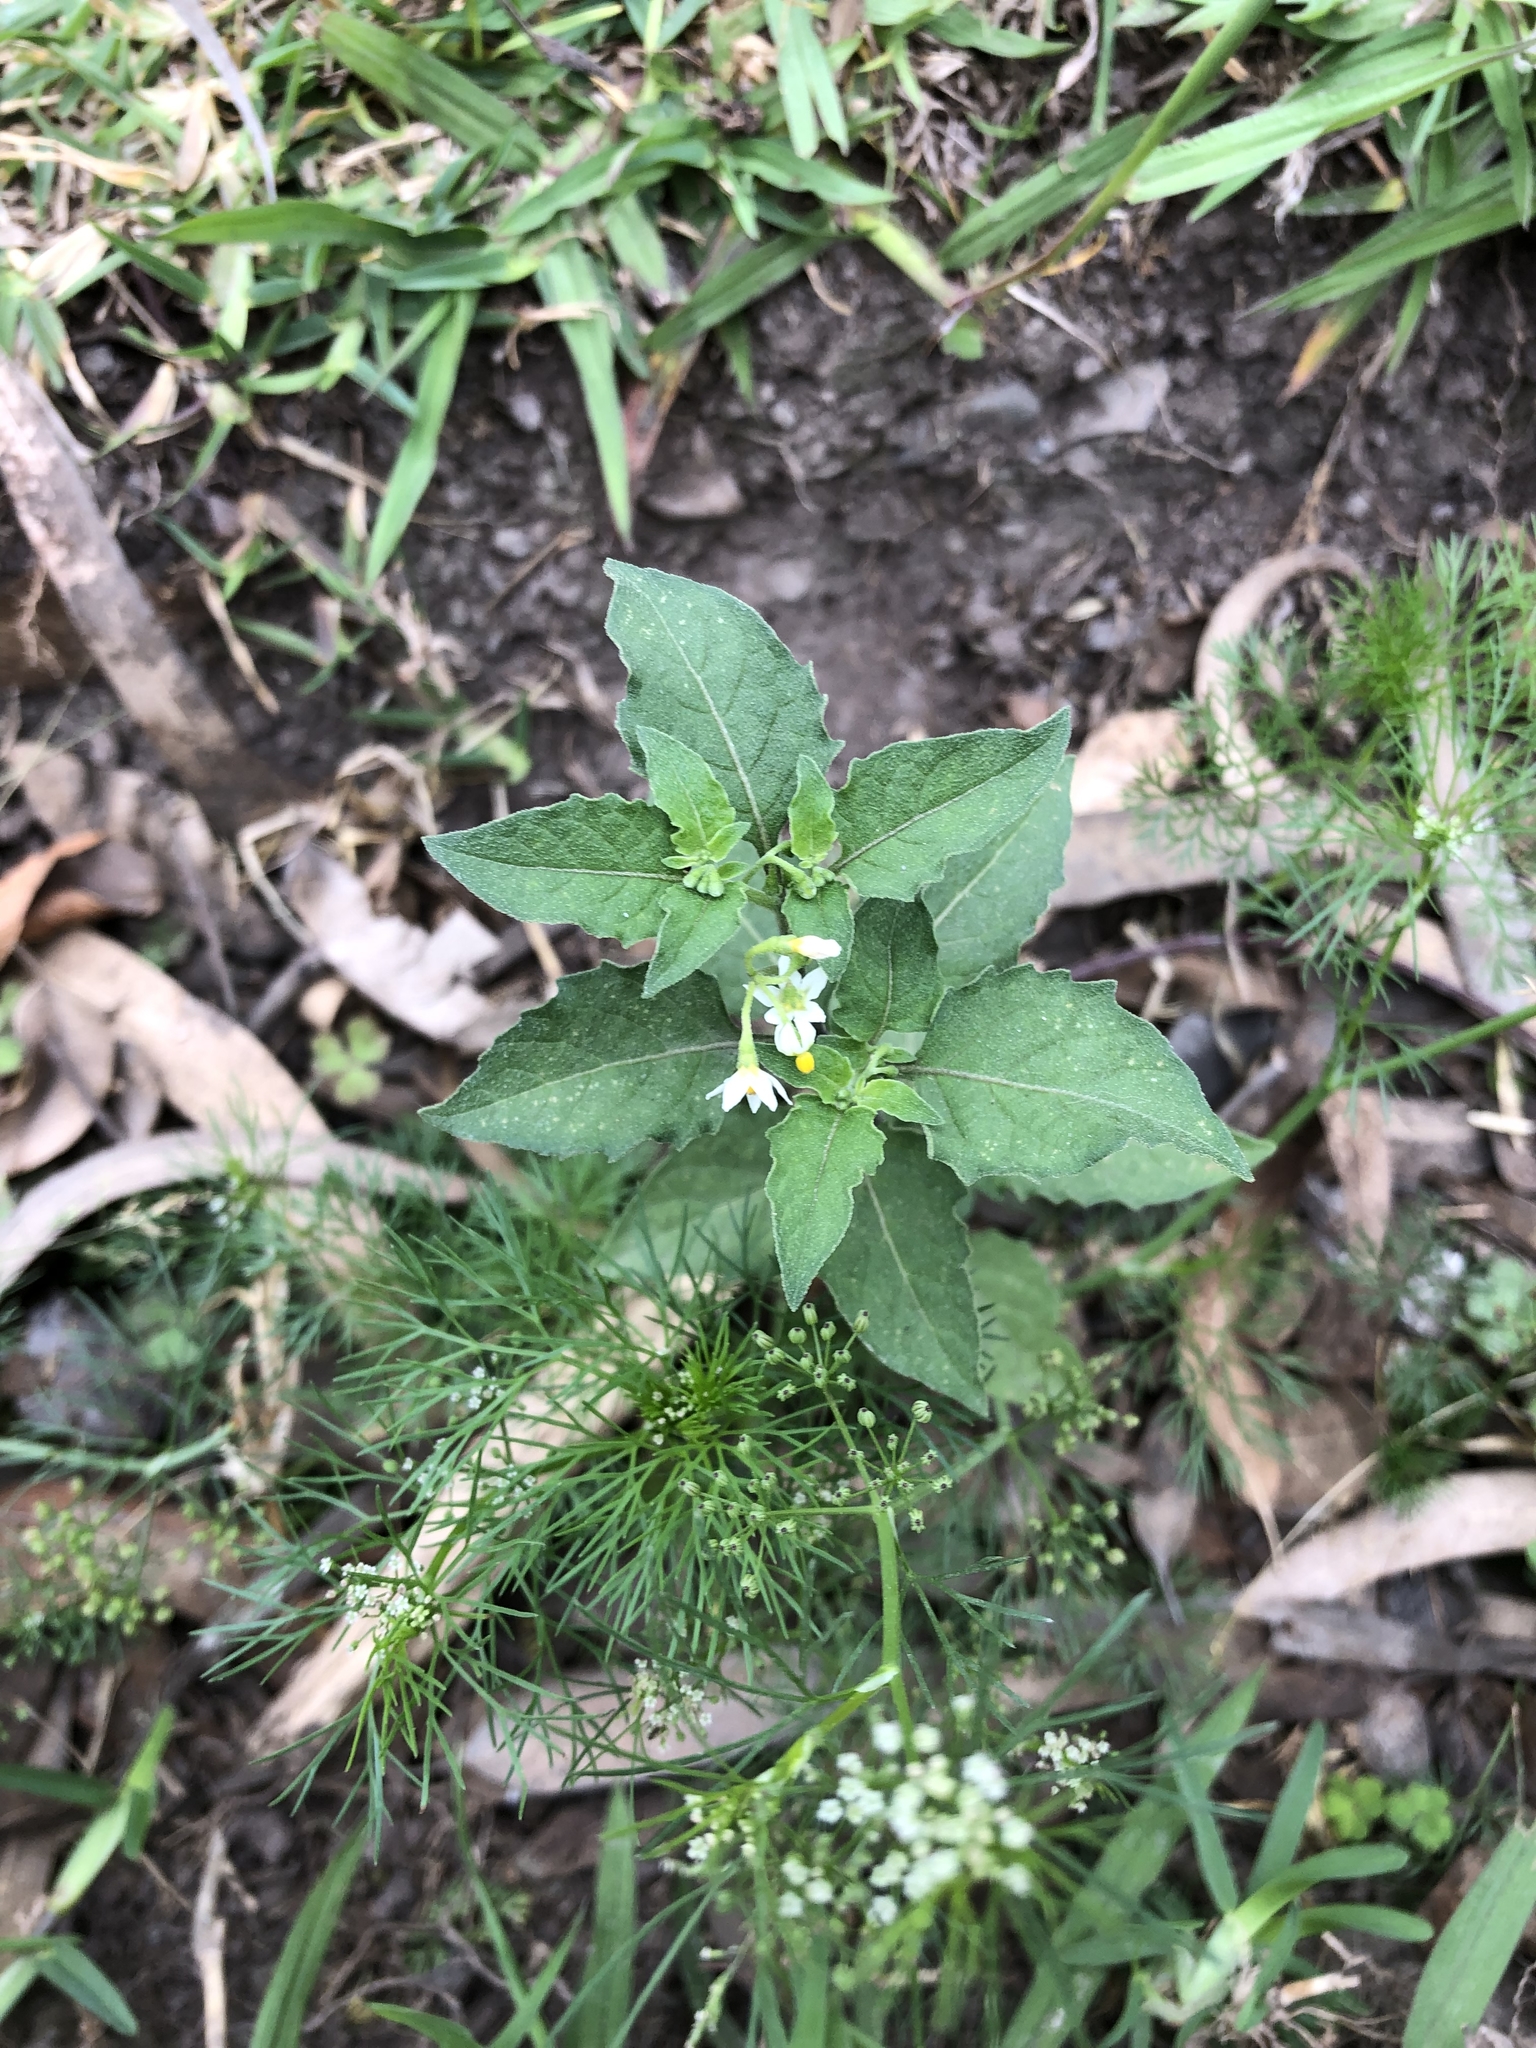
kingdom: Plantae
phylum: Tracheophyta
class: Magnoliopsida
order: Solanales
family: Solanaceae
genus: Solanum
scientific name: Solanum americanum
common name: American black nightshade
